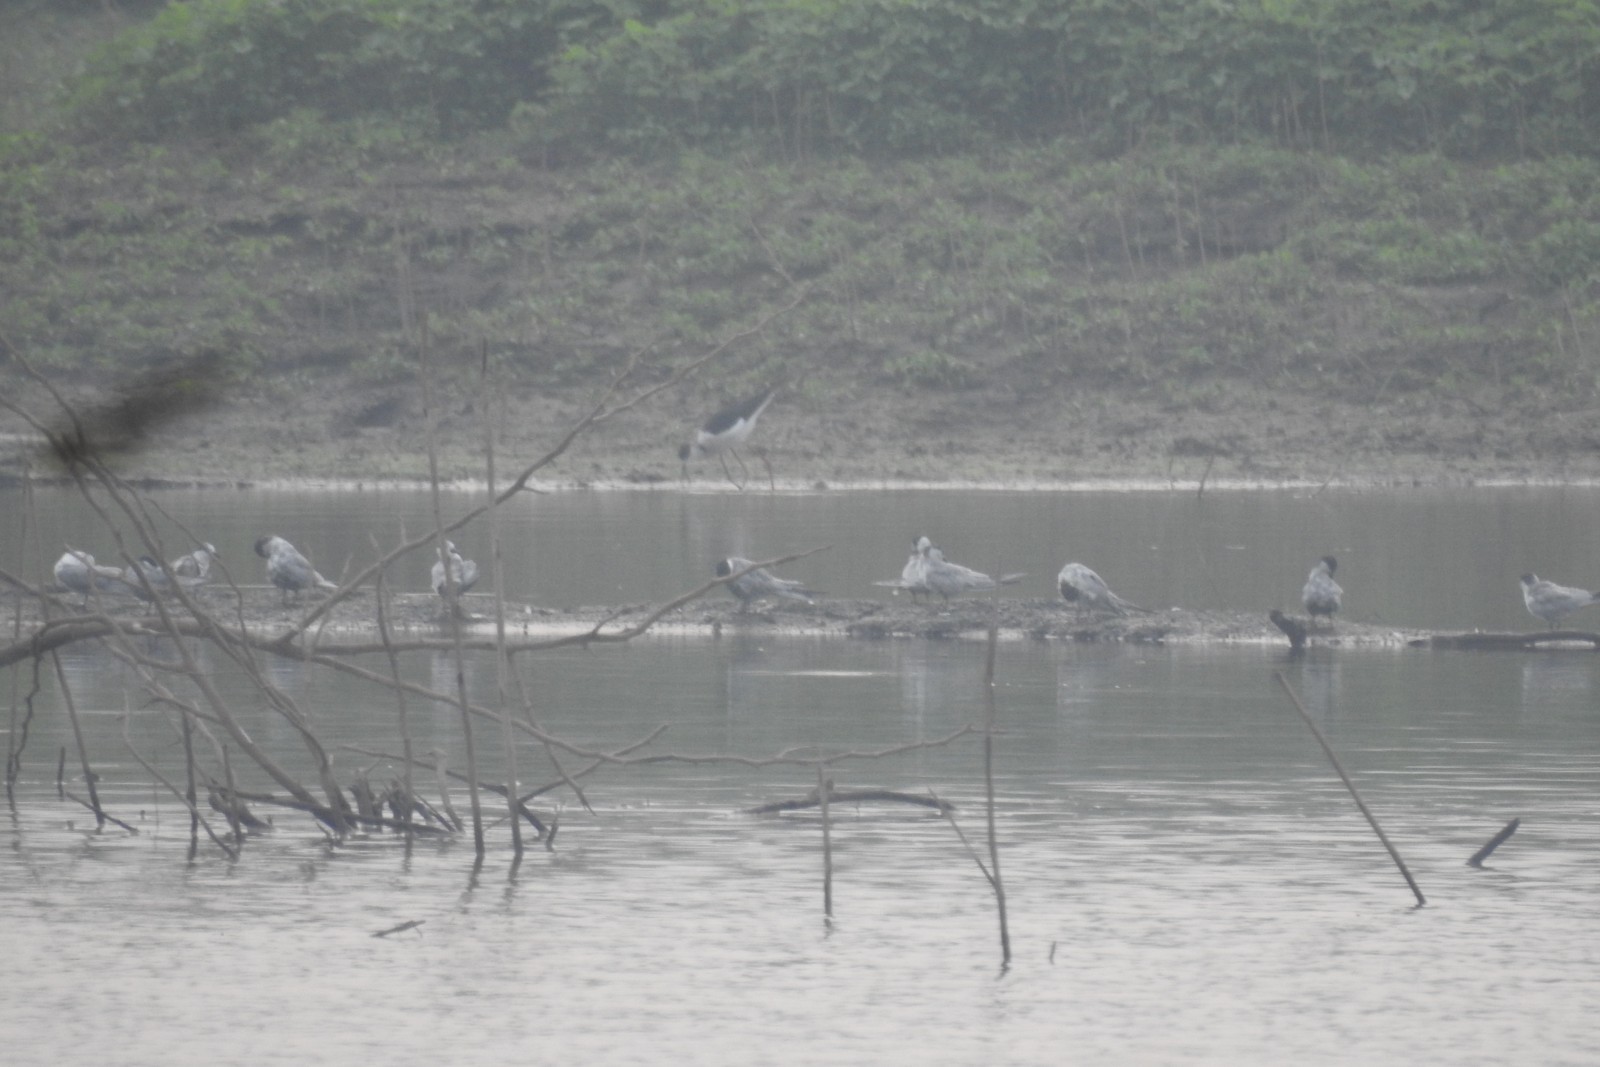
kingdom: Animalia
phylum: Chordata
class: Aves
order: Charadriiformes
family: Laridae
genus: Chlidonias
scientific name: Chlidonias hybrida
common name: Whiskered tern
